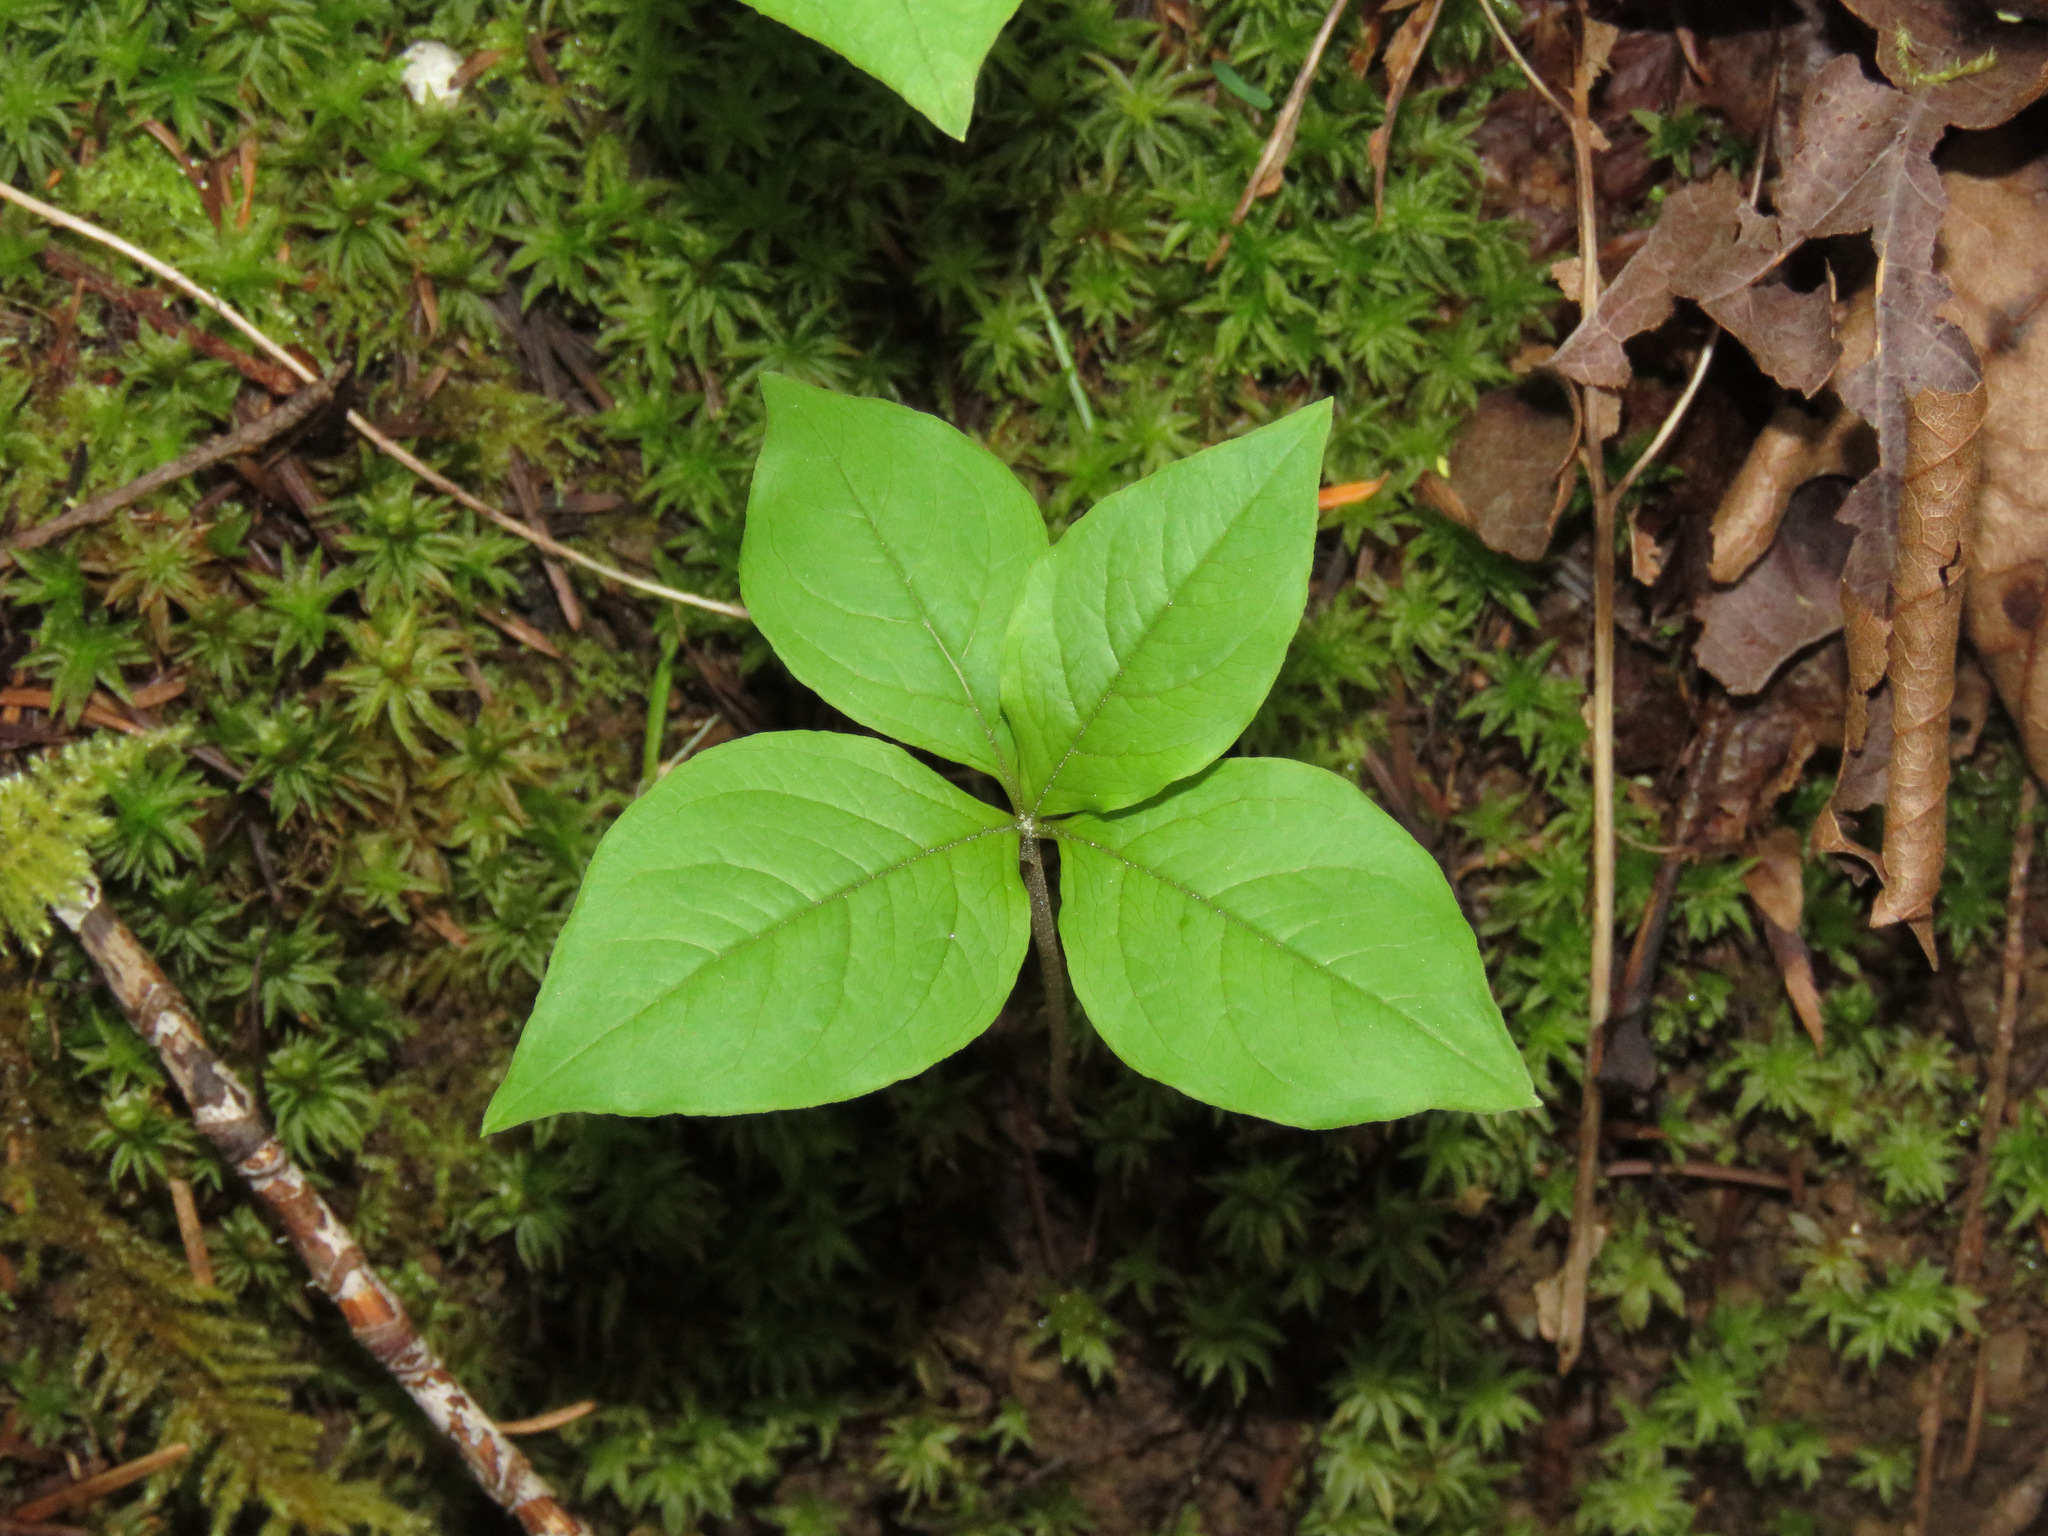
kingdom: Plantae
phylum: Tracheophyta
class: Magnoliopsida
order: Ericales
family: Primulaceae
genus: Lysimachia
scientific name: Lysimachia latifolia
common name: Pacific starflower
